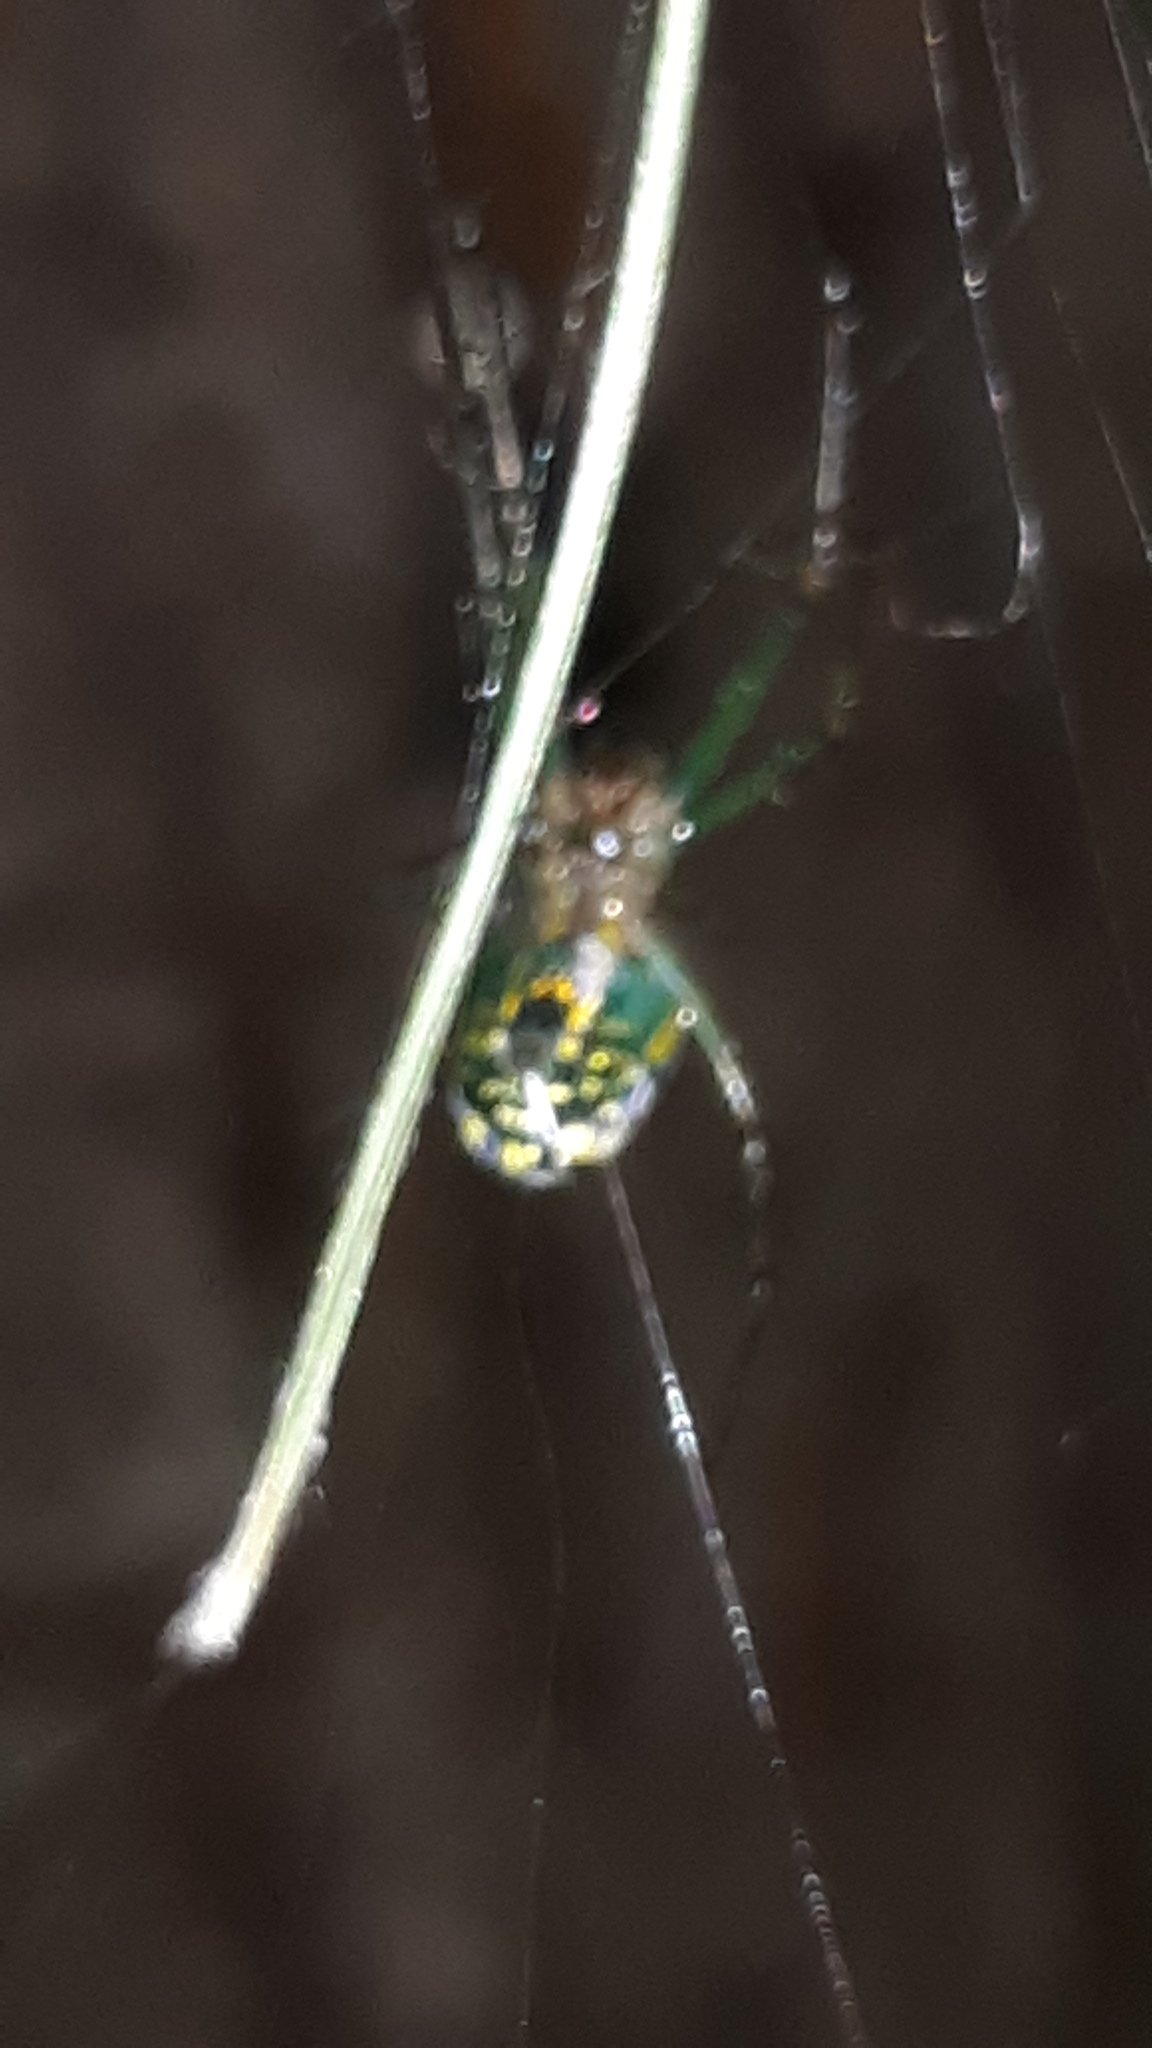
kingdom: Animalia
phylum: Arthropoda
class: Arachnida
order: Araneae
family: Tetragnathidae
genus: Leucauge
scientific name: Leucauge venusta
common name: Longjawed orb weavers
